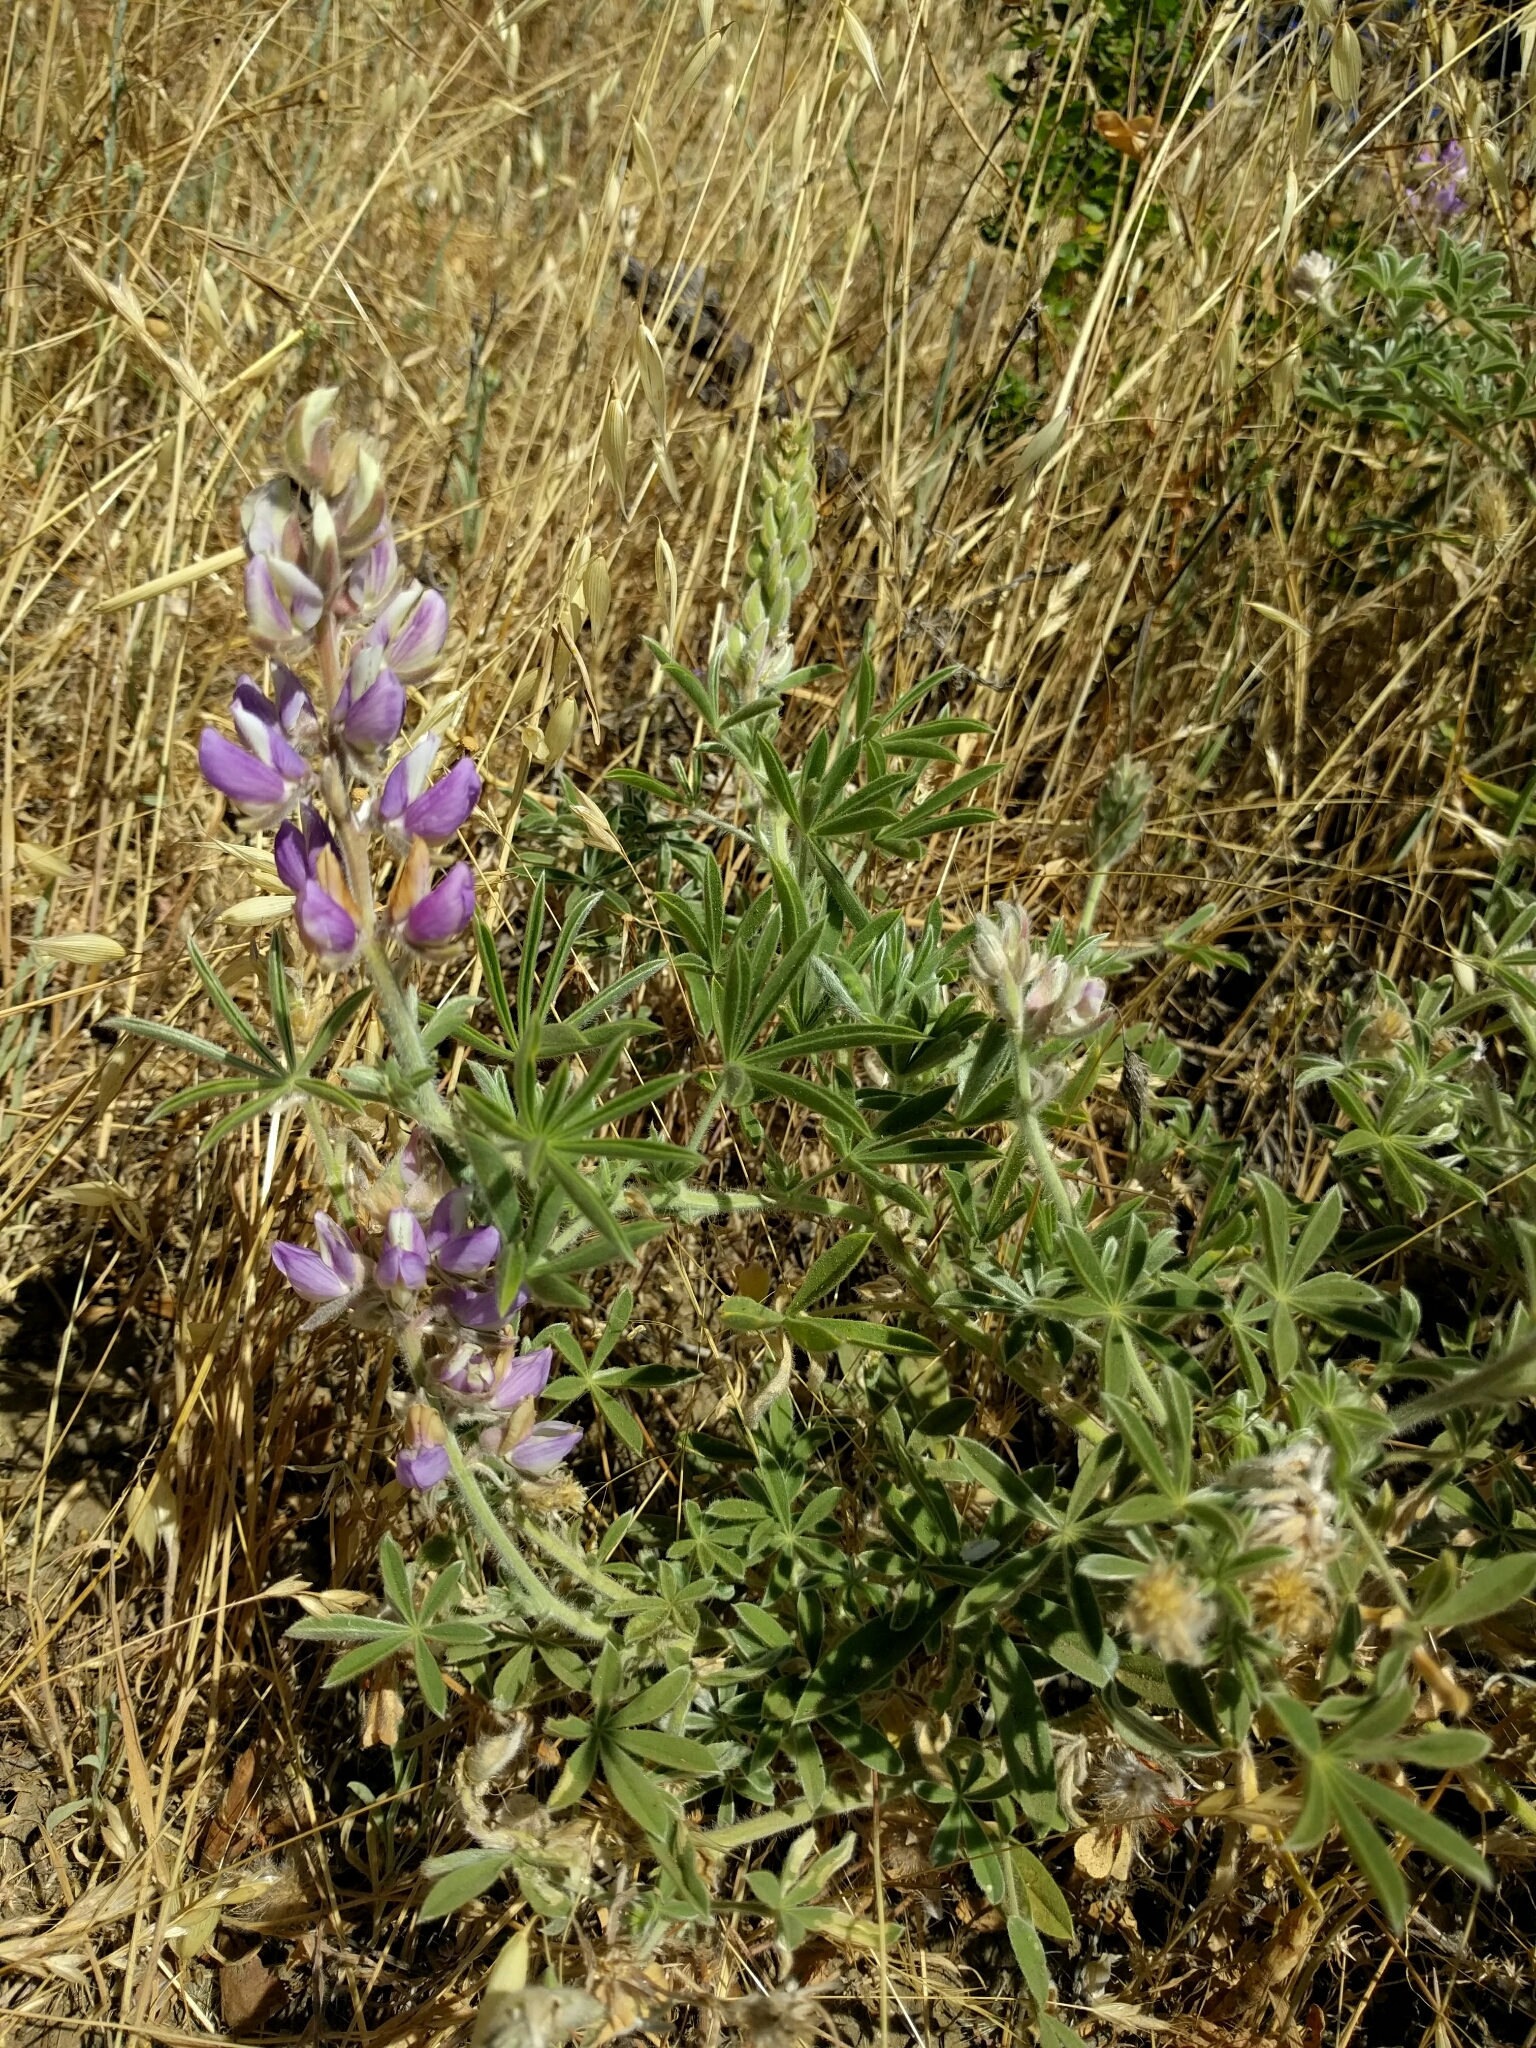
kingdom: Plantae
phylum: Tracheophyta
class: Magnoliopsida
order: Fabales
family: Fabaceae
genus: Lupinus
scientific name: Lupinus formosus
